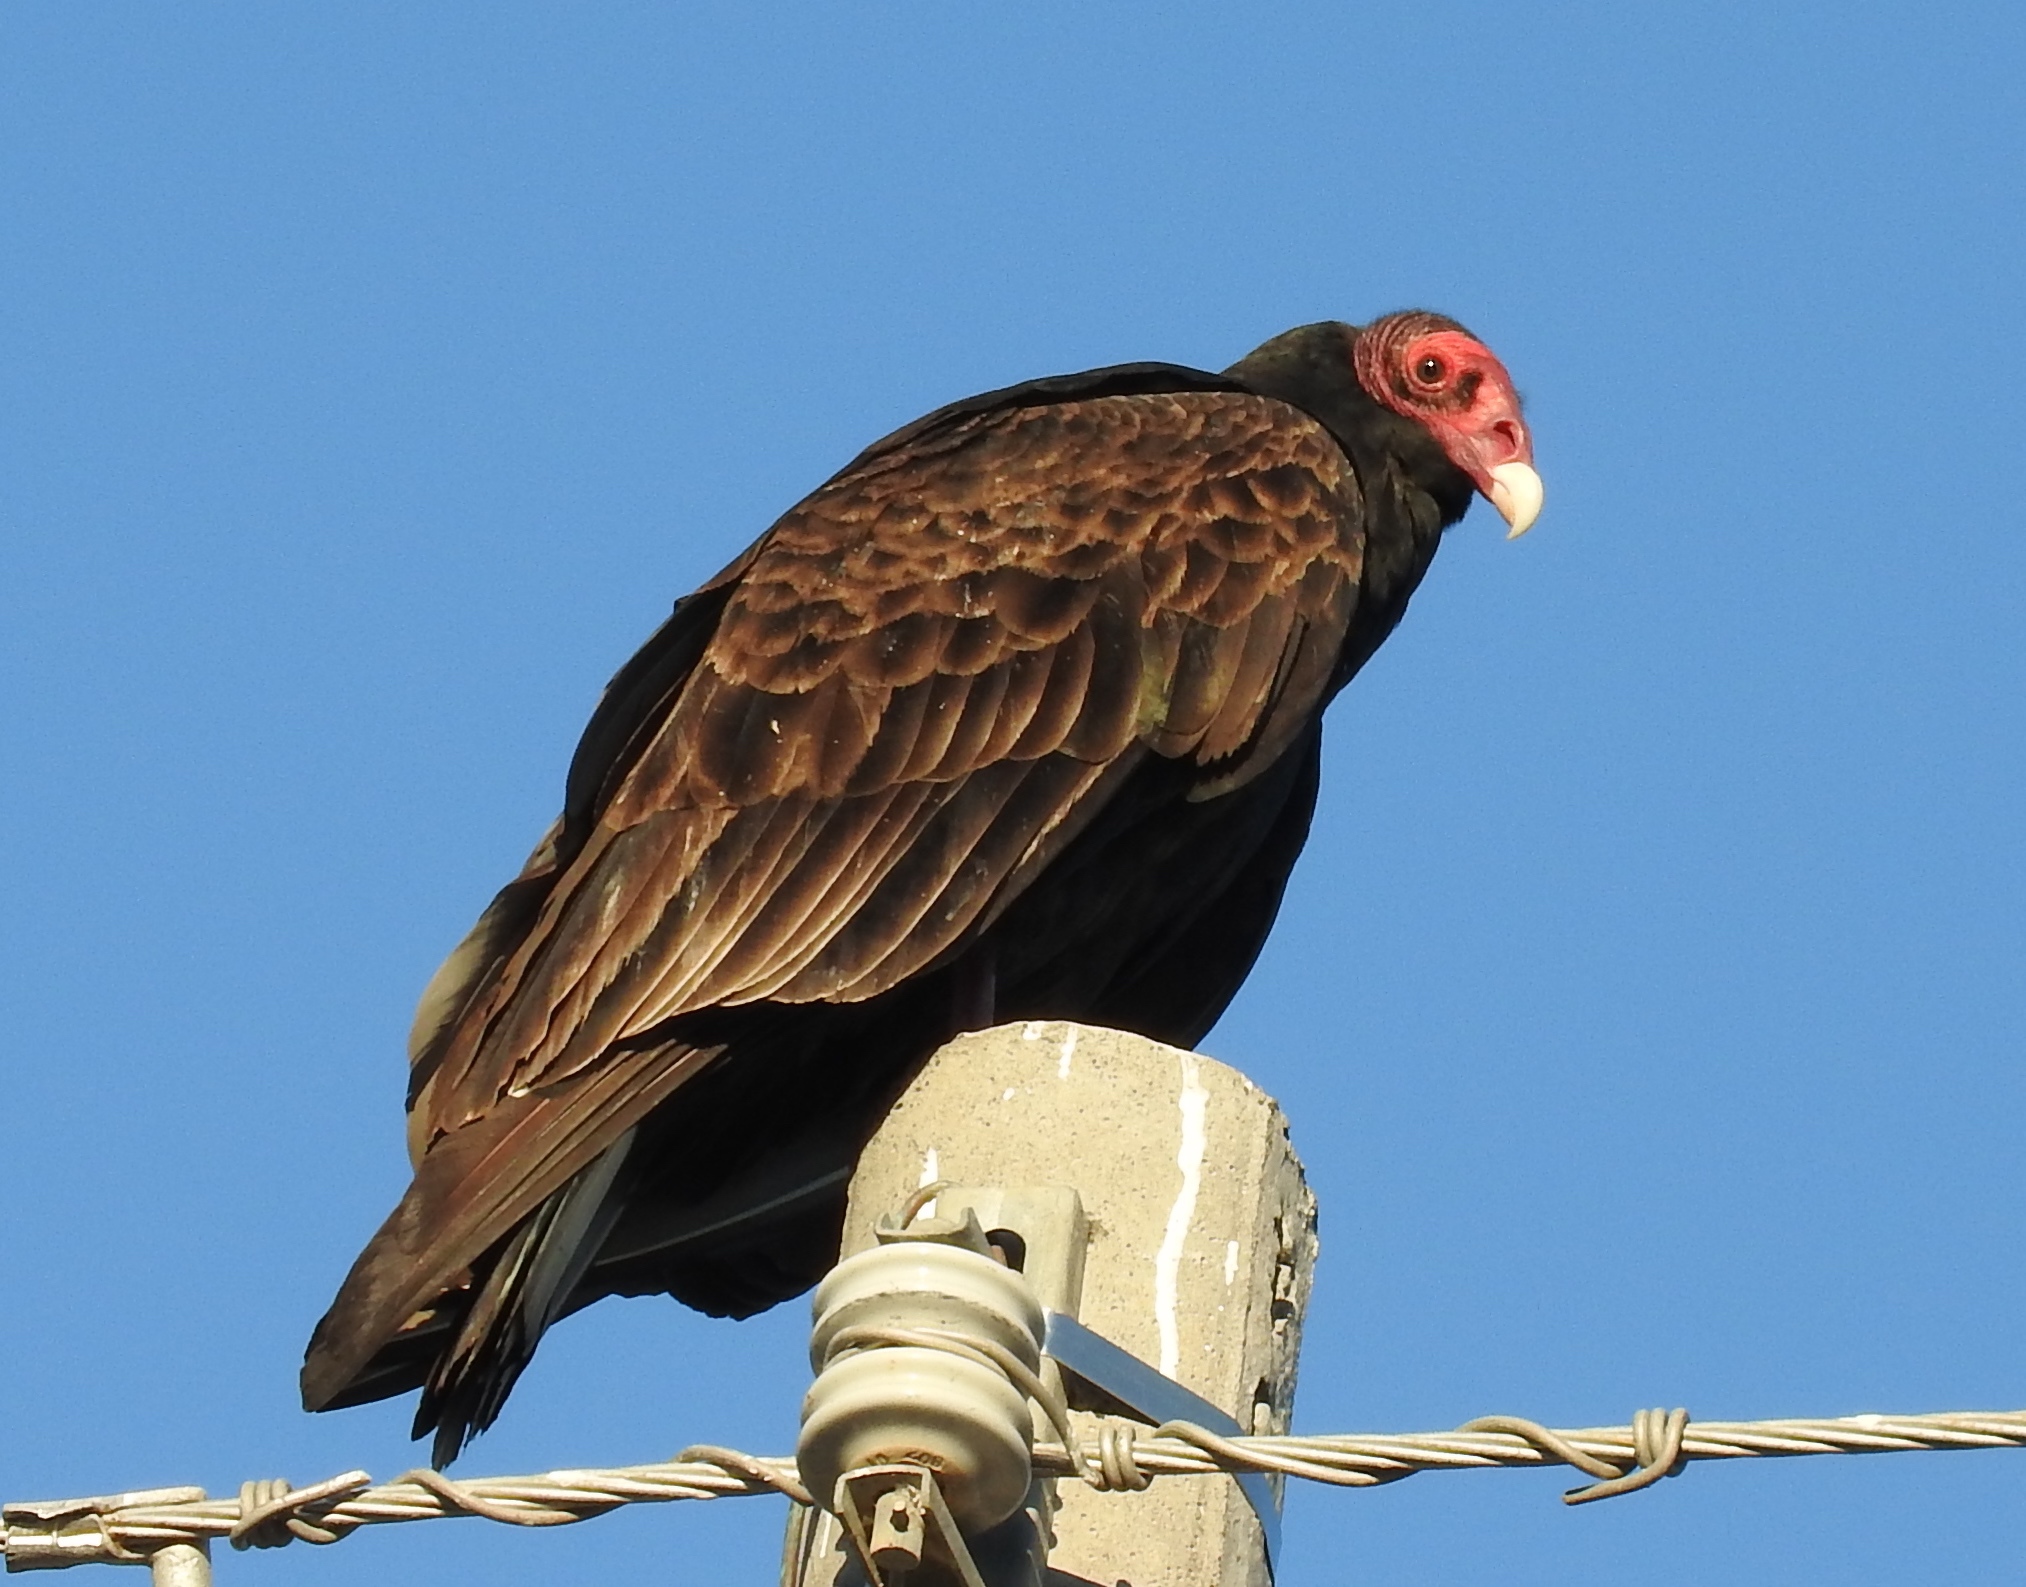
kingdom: Animalia
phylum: Chordata
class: Aves
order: Accipitriformes
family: Cathartidae
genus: Cathartes
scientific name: Cathartes aura
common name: Turkey vulture
